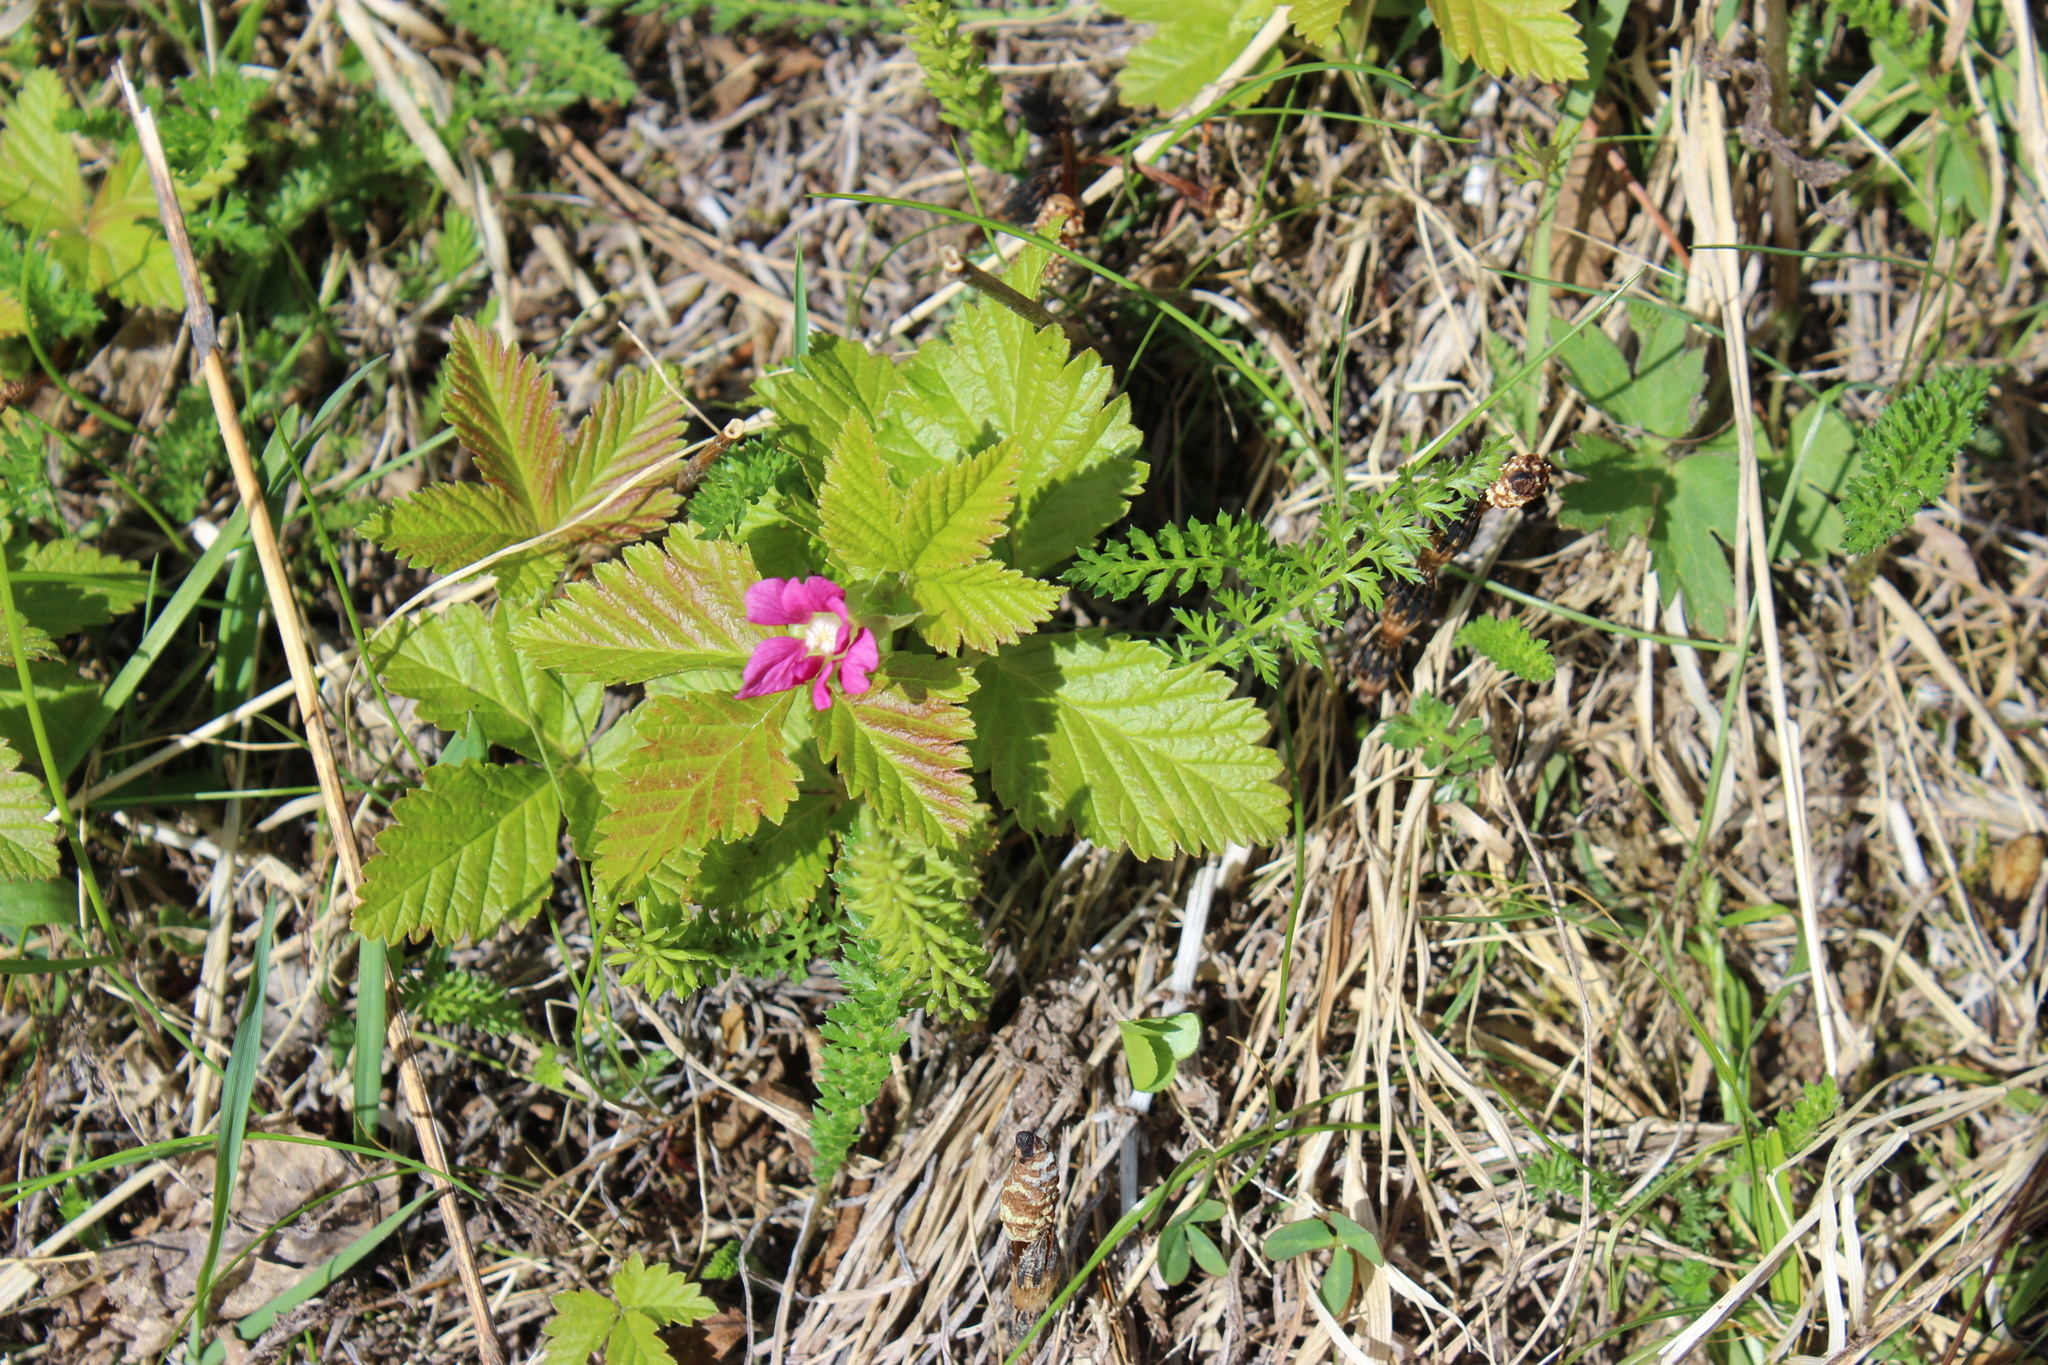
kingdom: Plantae
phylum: Tracheophyta
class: Magnoliopsida
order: Rosales
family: Rosaceae
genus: Rubus
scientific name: Rubus arcticus
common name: Arctic bramble
